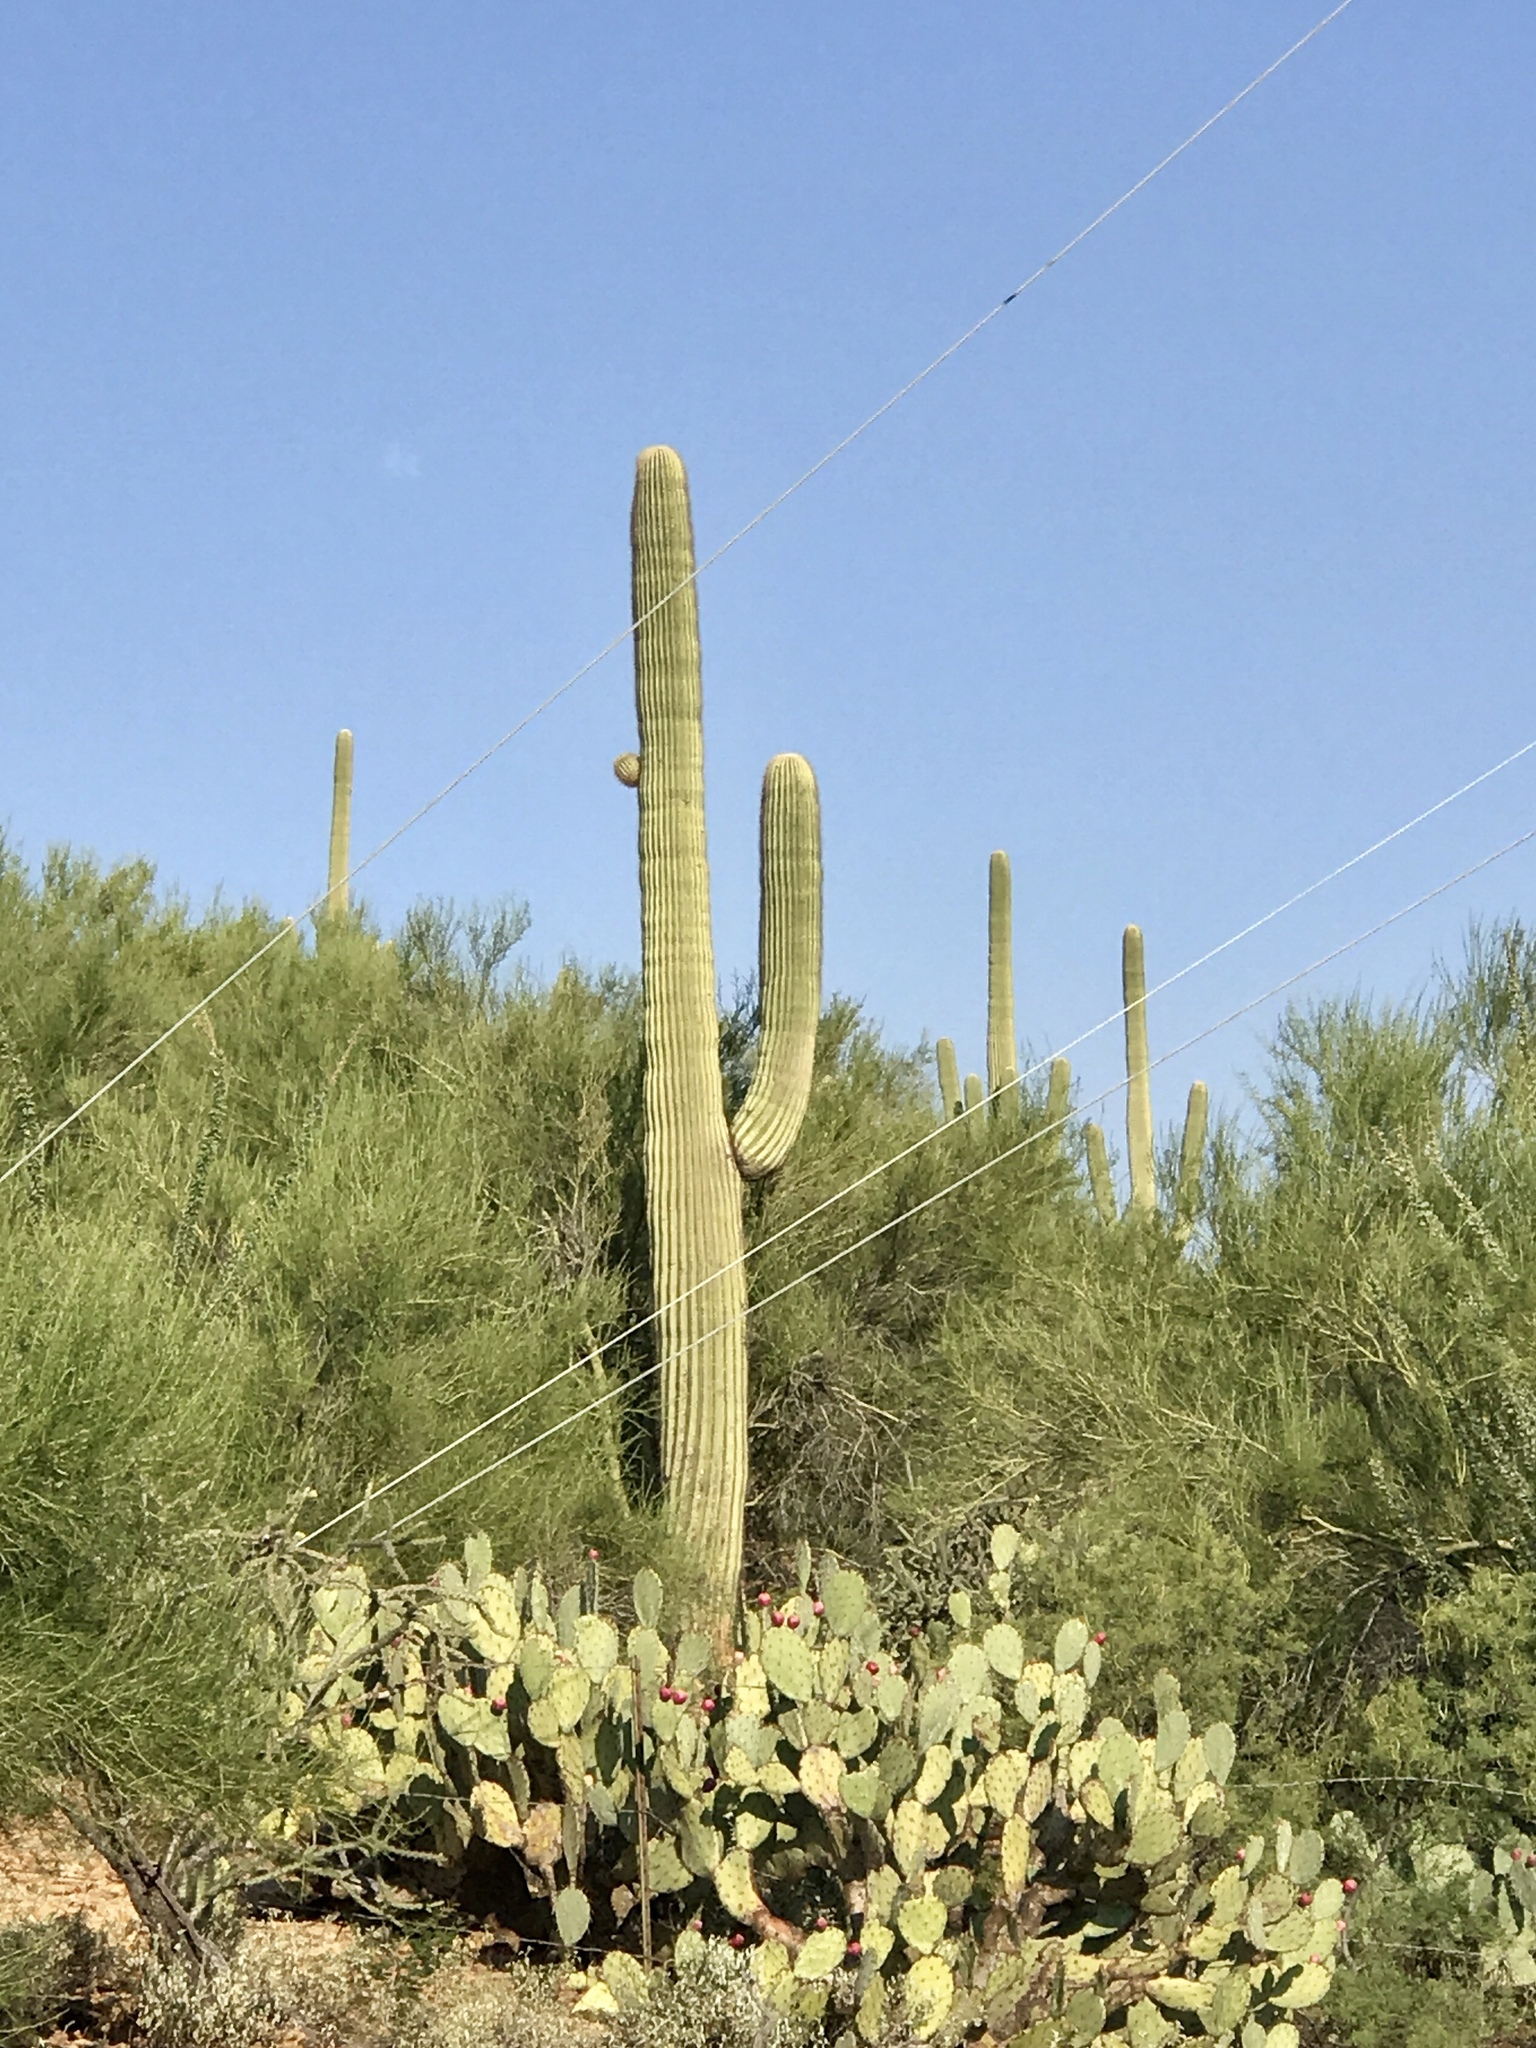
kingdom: Plantae
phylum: Tracheophyta
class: Magnoliopsida
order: Caryophyllales
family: Cactaceae
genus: Carnegiea
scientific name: Carnegiea gigantea
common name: Saguaro
